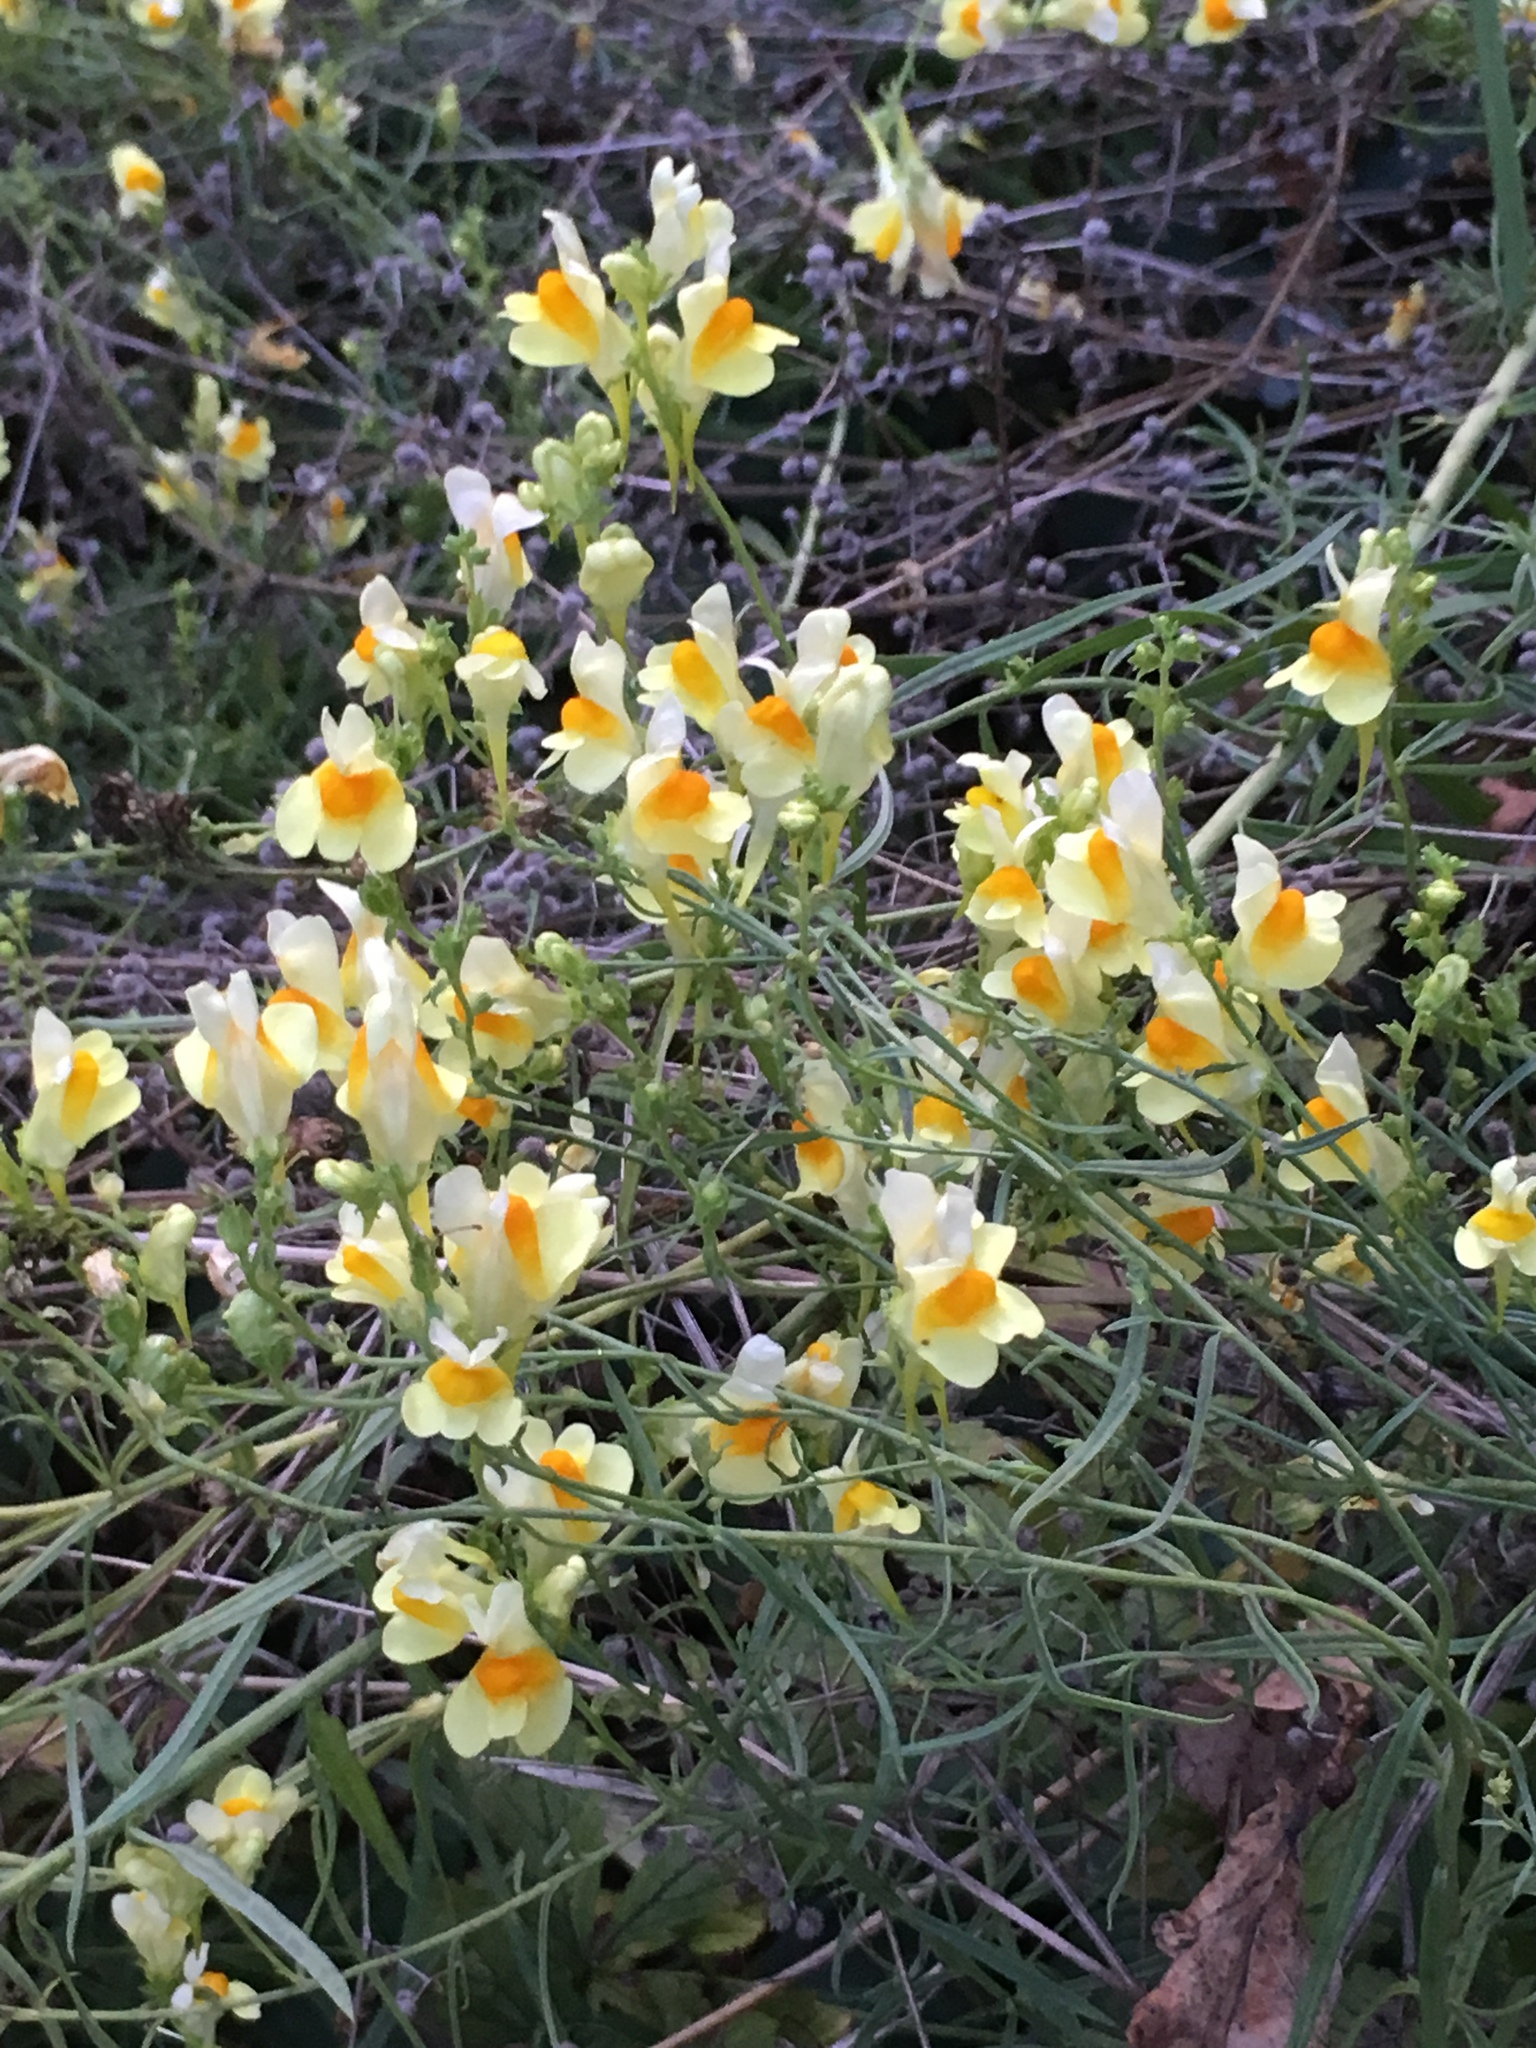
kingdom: Plantae
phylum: Tracheophyta
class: Magnoliopsida
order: Lamiales
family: Plantaginaceae
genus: Linaria
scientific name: Linaria vulgaris
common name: Butter and eggs
